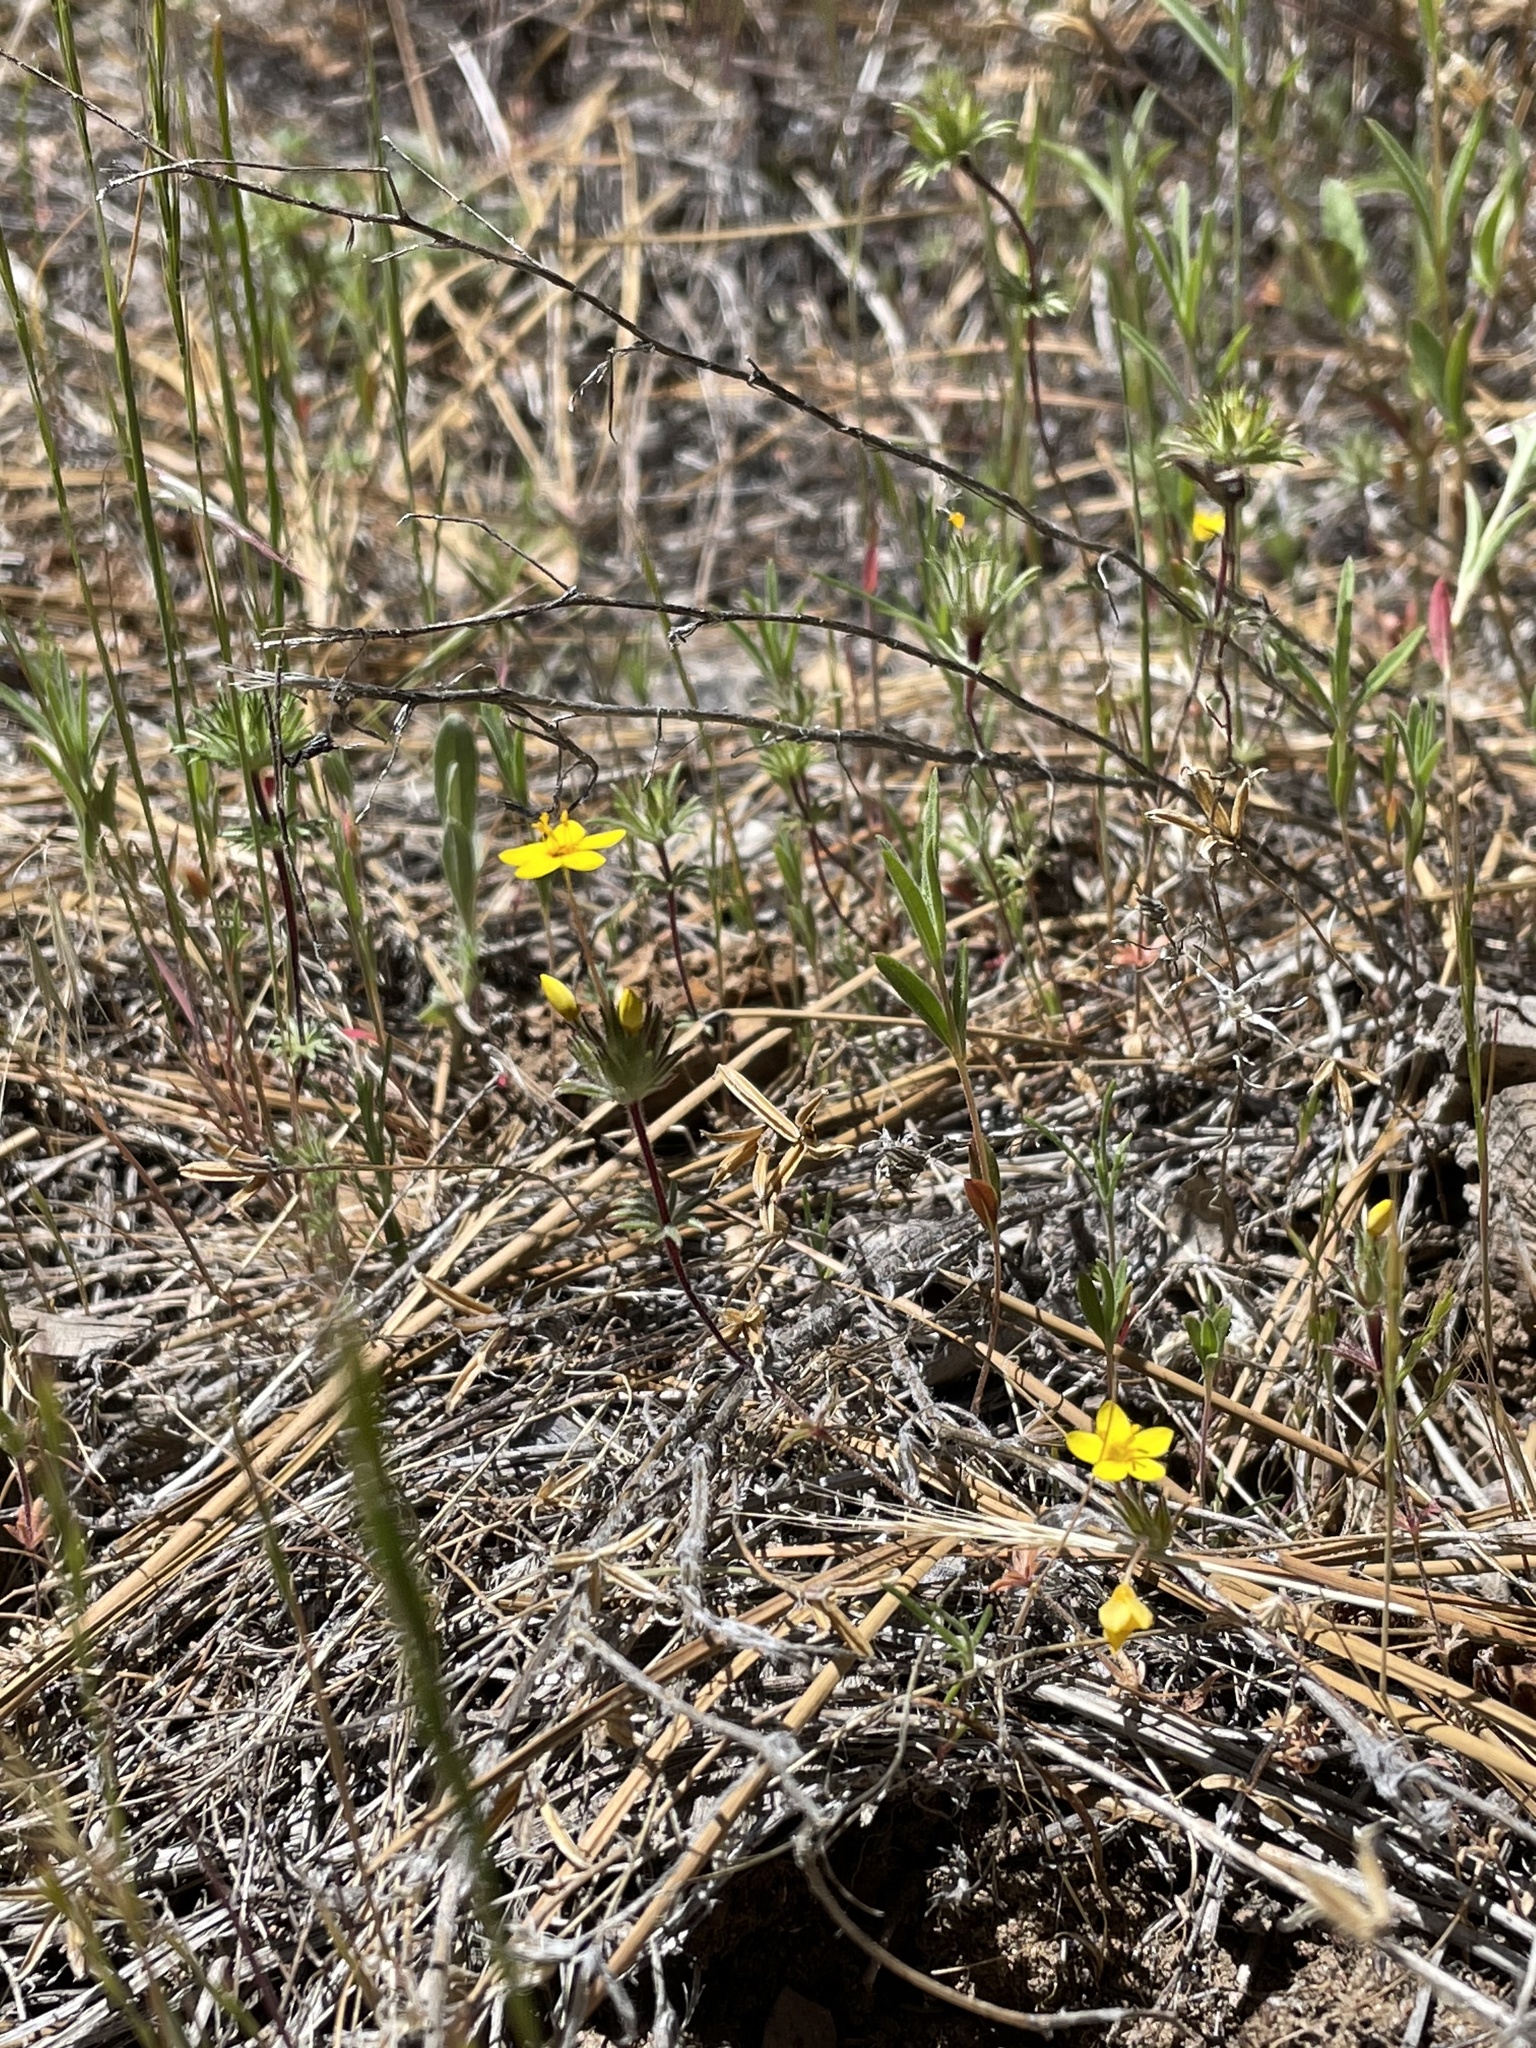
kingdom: Plantae
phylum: Tracheophyta
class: Magnoliopsida
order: Ericales
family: Polemoniaceae
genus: Leptosiphon
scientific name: Leptosiphon parviflorus
